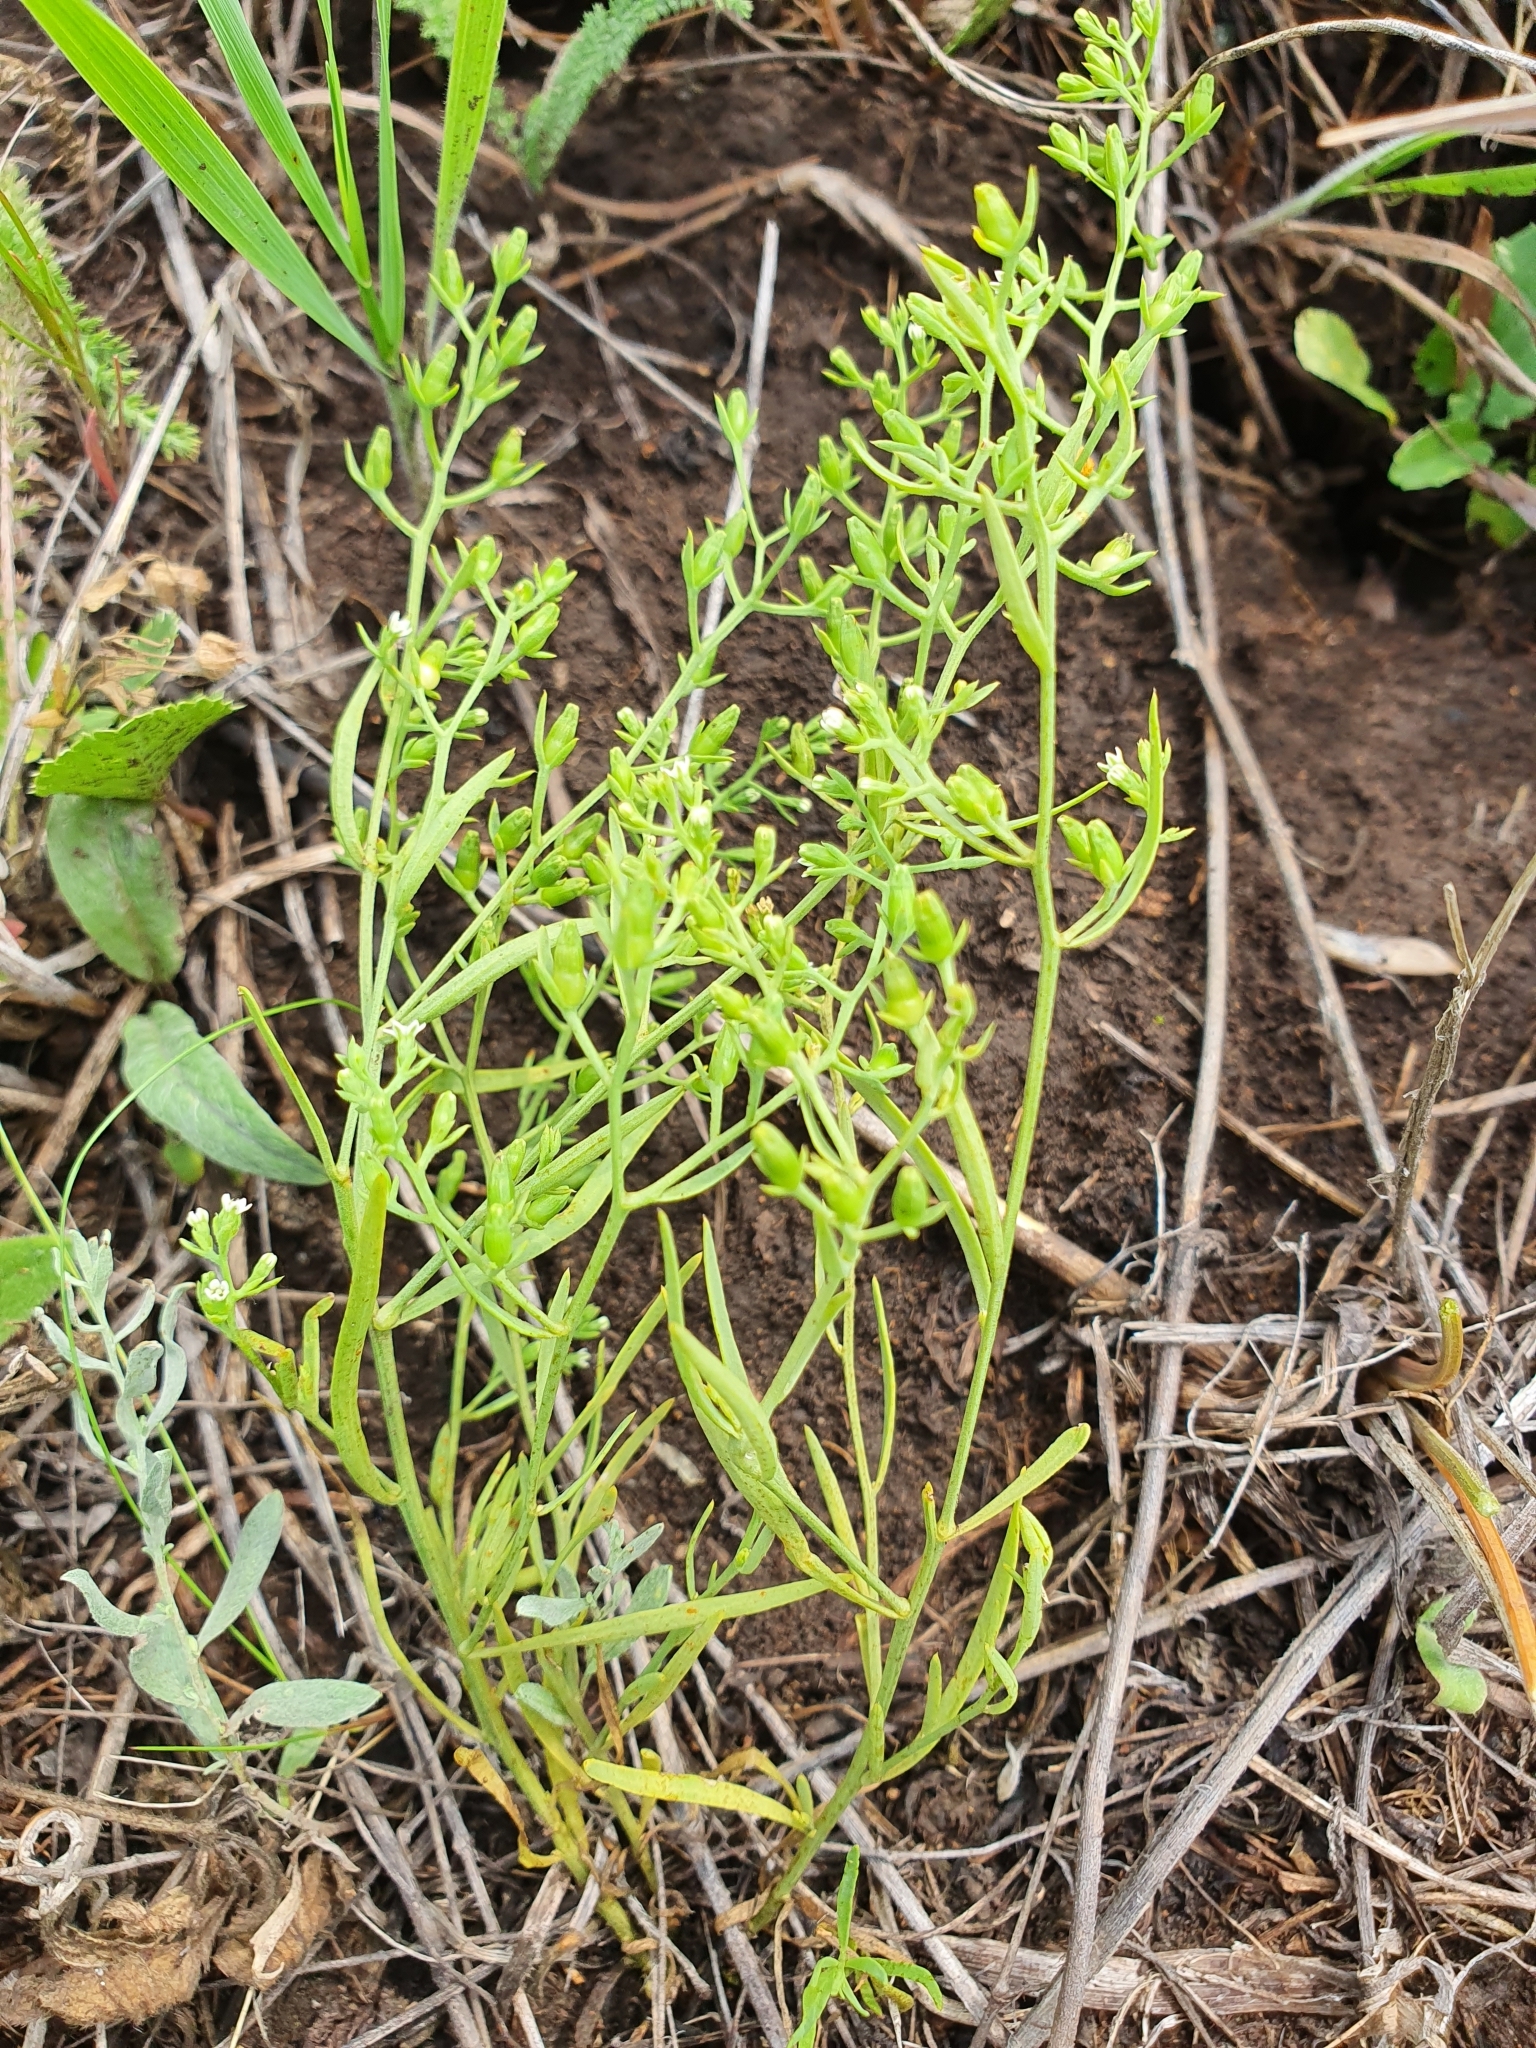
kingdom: Plantae
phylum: Tracheophyta
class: Magnoliopsida
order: Santalales
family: Thesiaceae
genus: Thesium
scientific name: Thesium ramosum
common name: Field thesium
